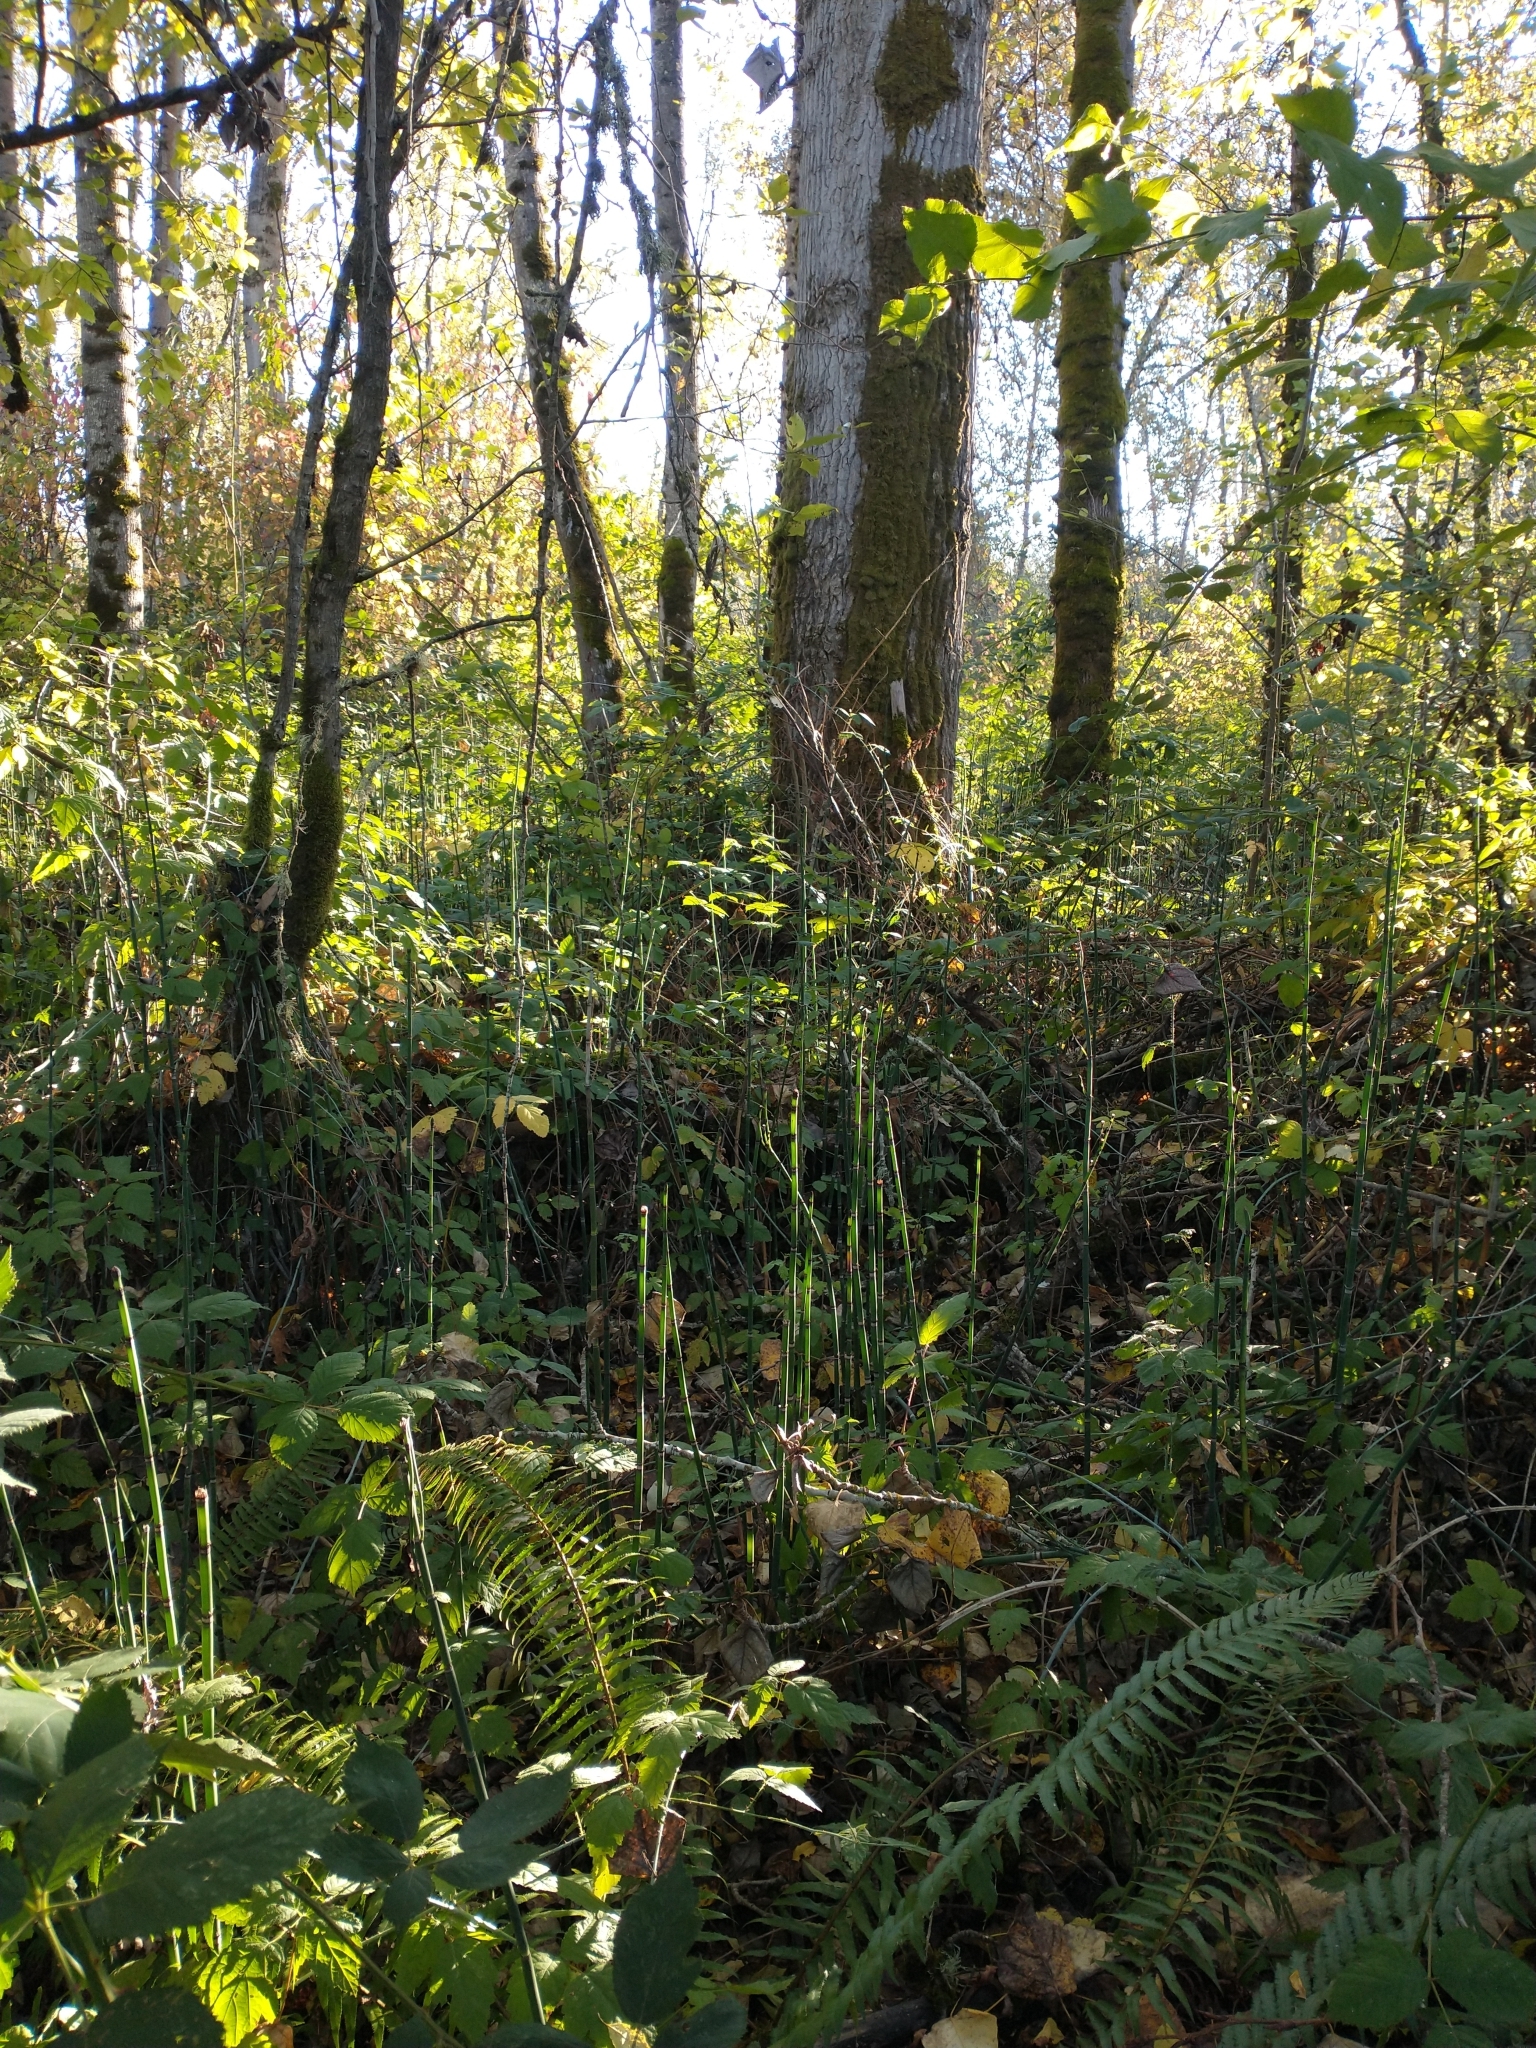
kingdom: Plantae
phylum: Tracheophyta
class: Polypodiopsida
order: Equisetales
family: Equisetaceae
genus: Equisetum
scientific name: Equisetum praealtum
